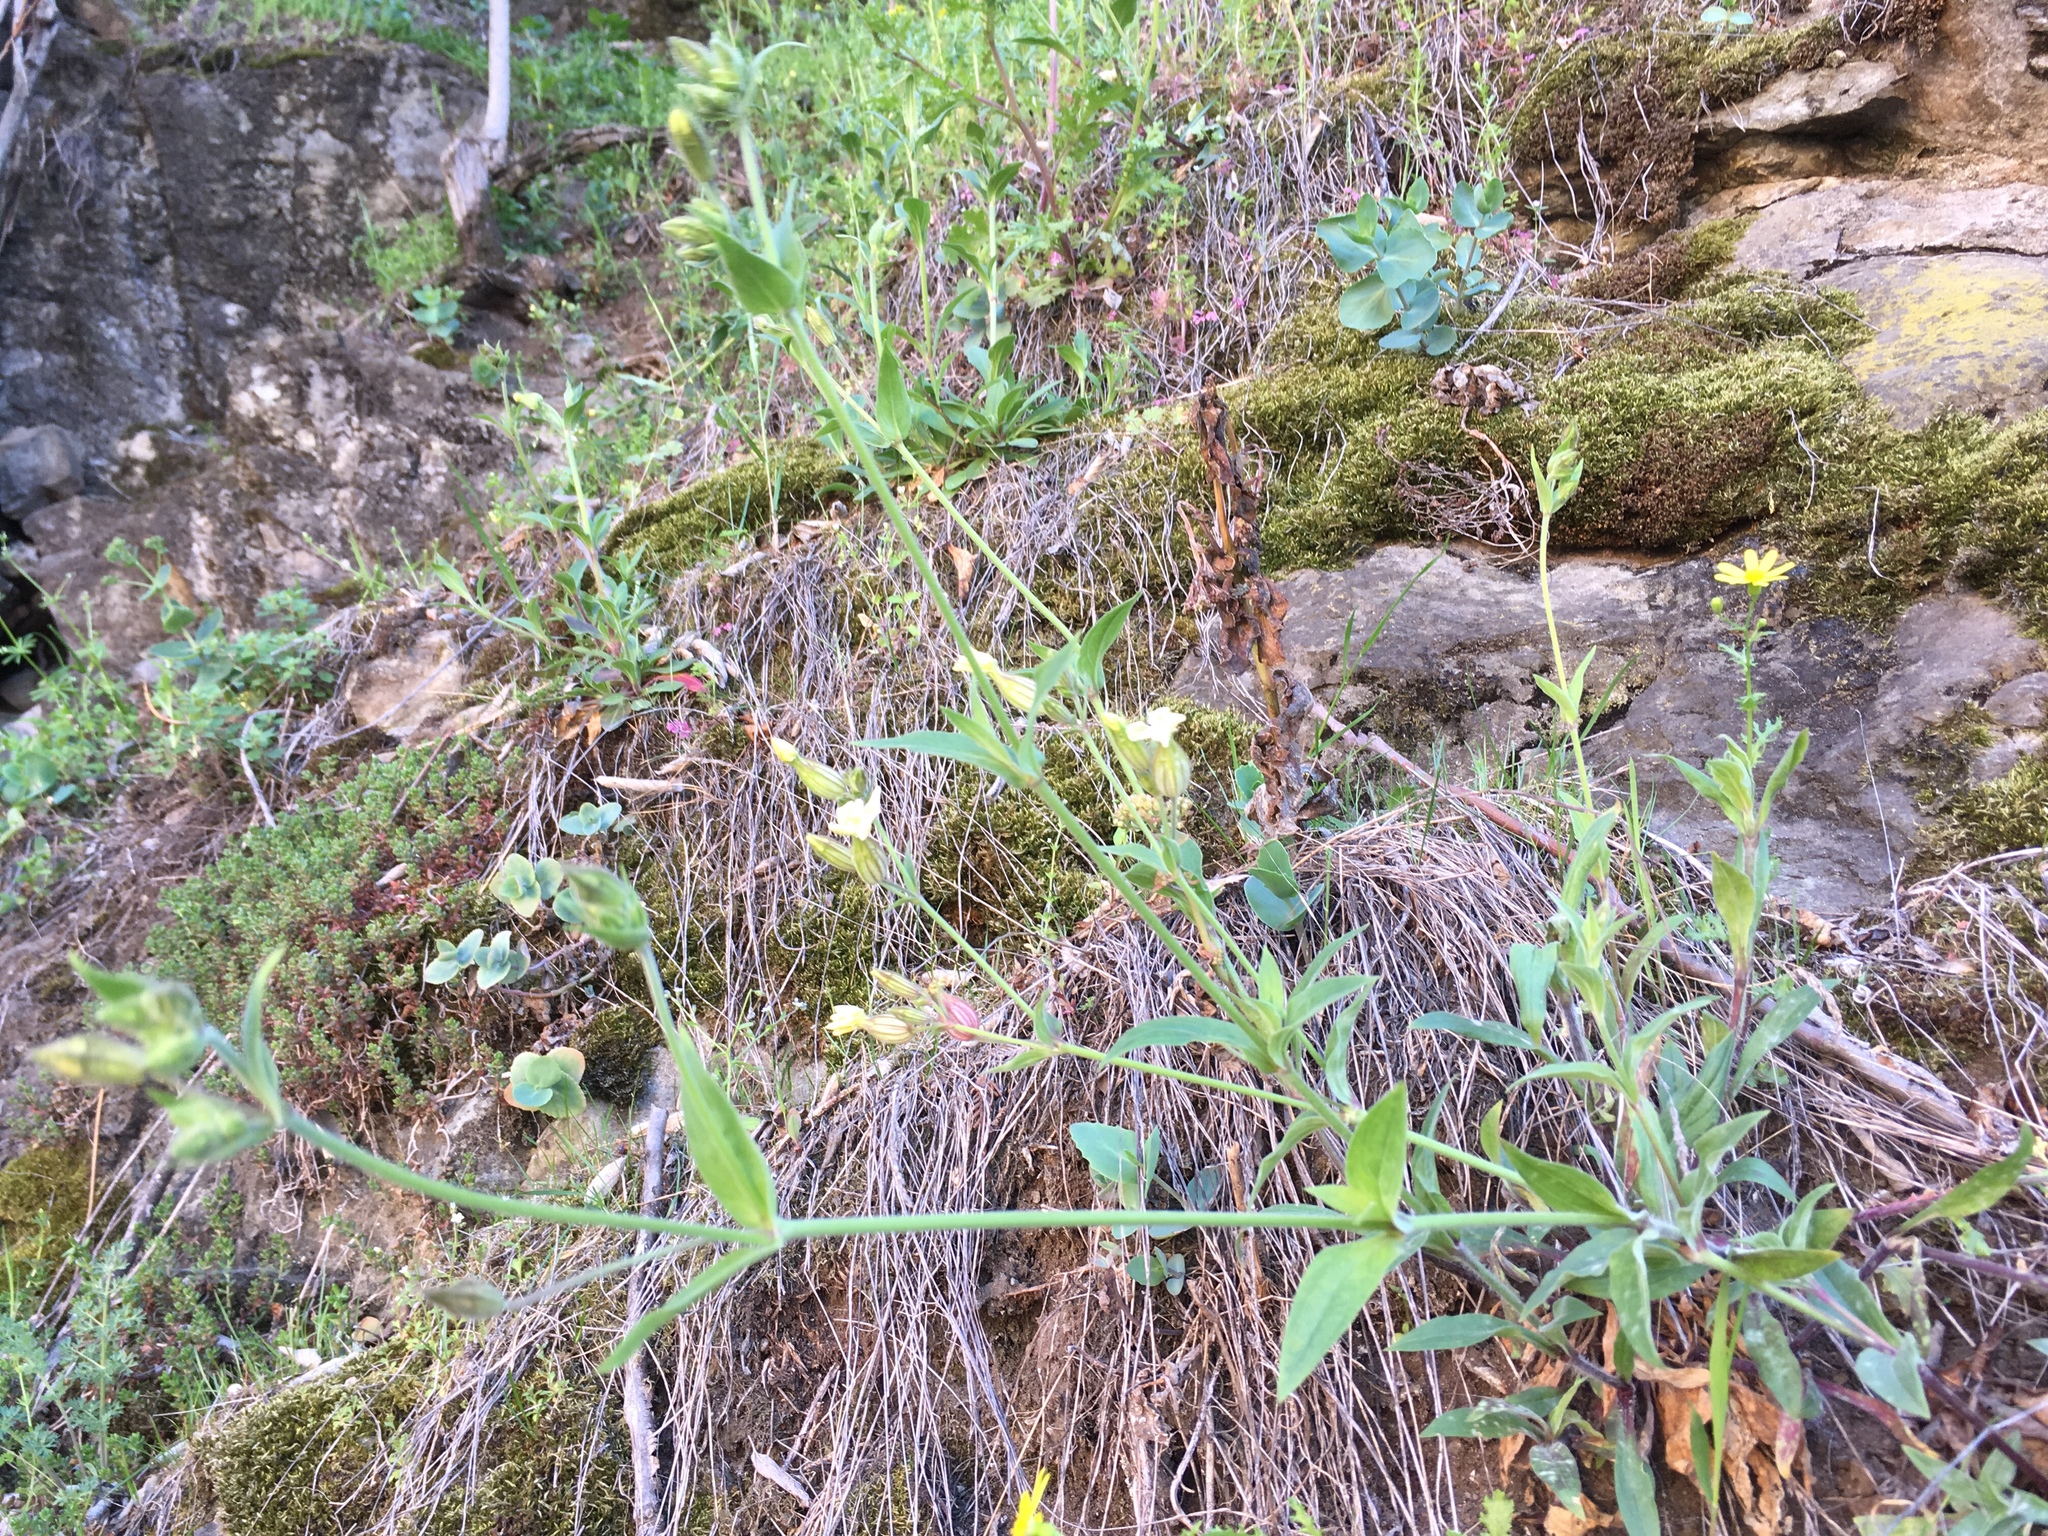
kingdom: Plantae
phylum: Tracheophyta
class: Magnoliopsida
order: Caryophyllales
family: Caryophyllaceae
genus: Silene
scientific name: Silene latifolia
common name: White campion
